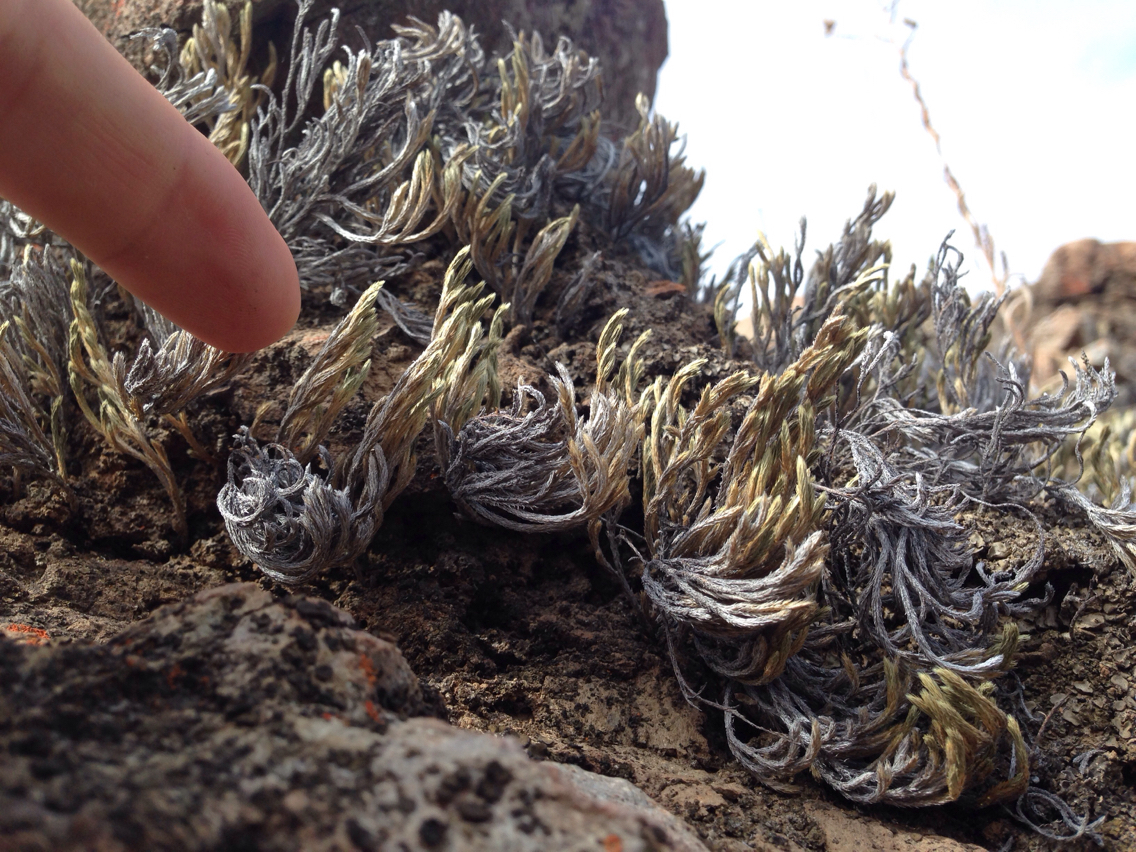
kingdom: Plantae
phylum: Tracheophyta
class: Lycopodiopsida
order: Selaginellales
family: Selaginellaceae
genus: Selaginella
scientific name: Selaginella bigelovii
